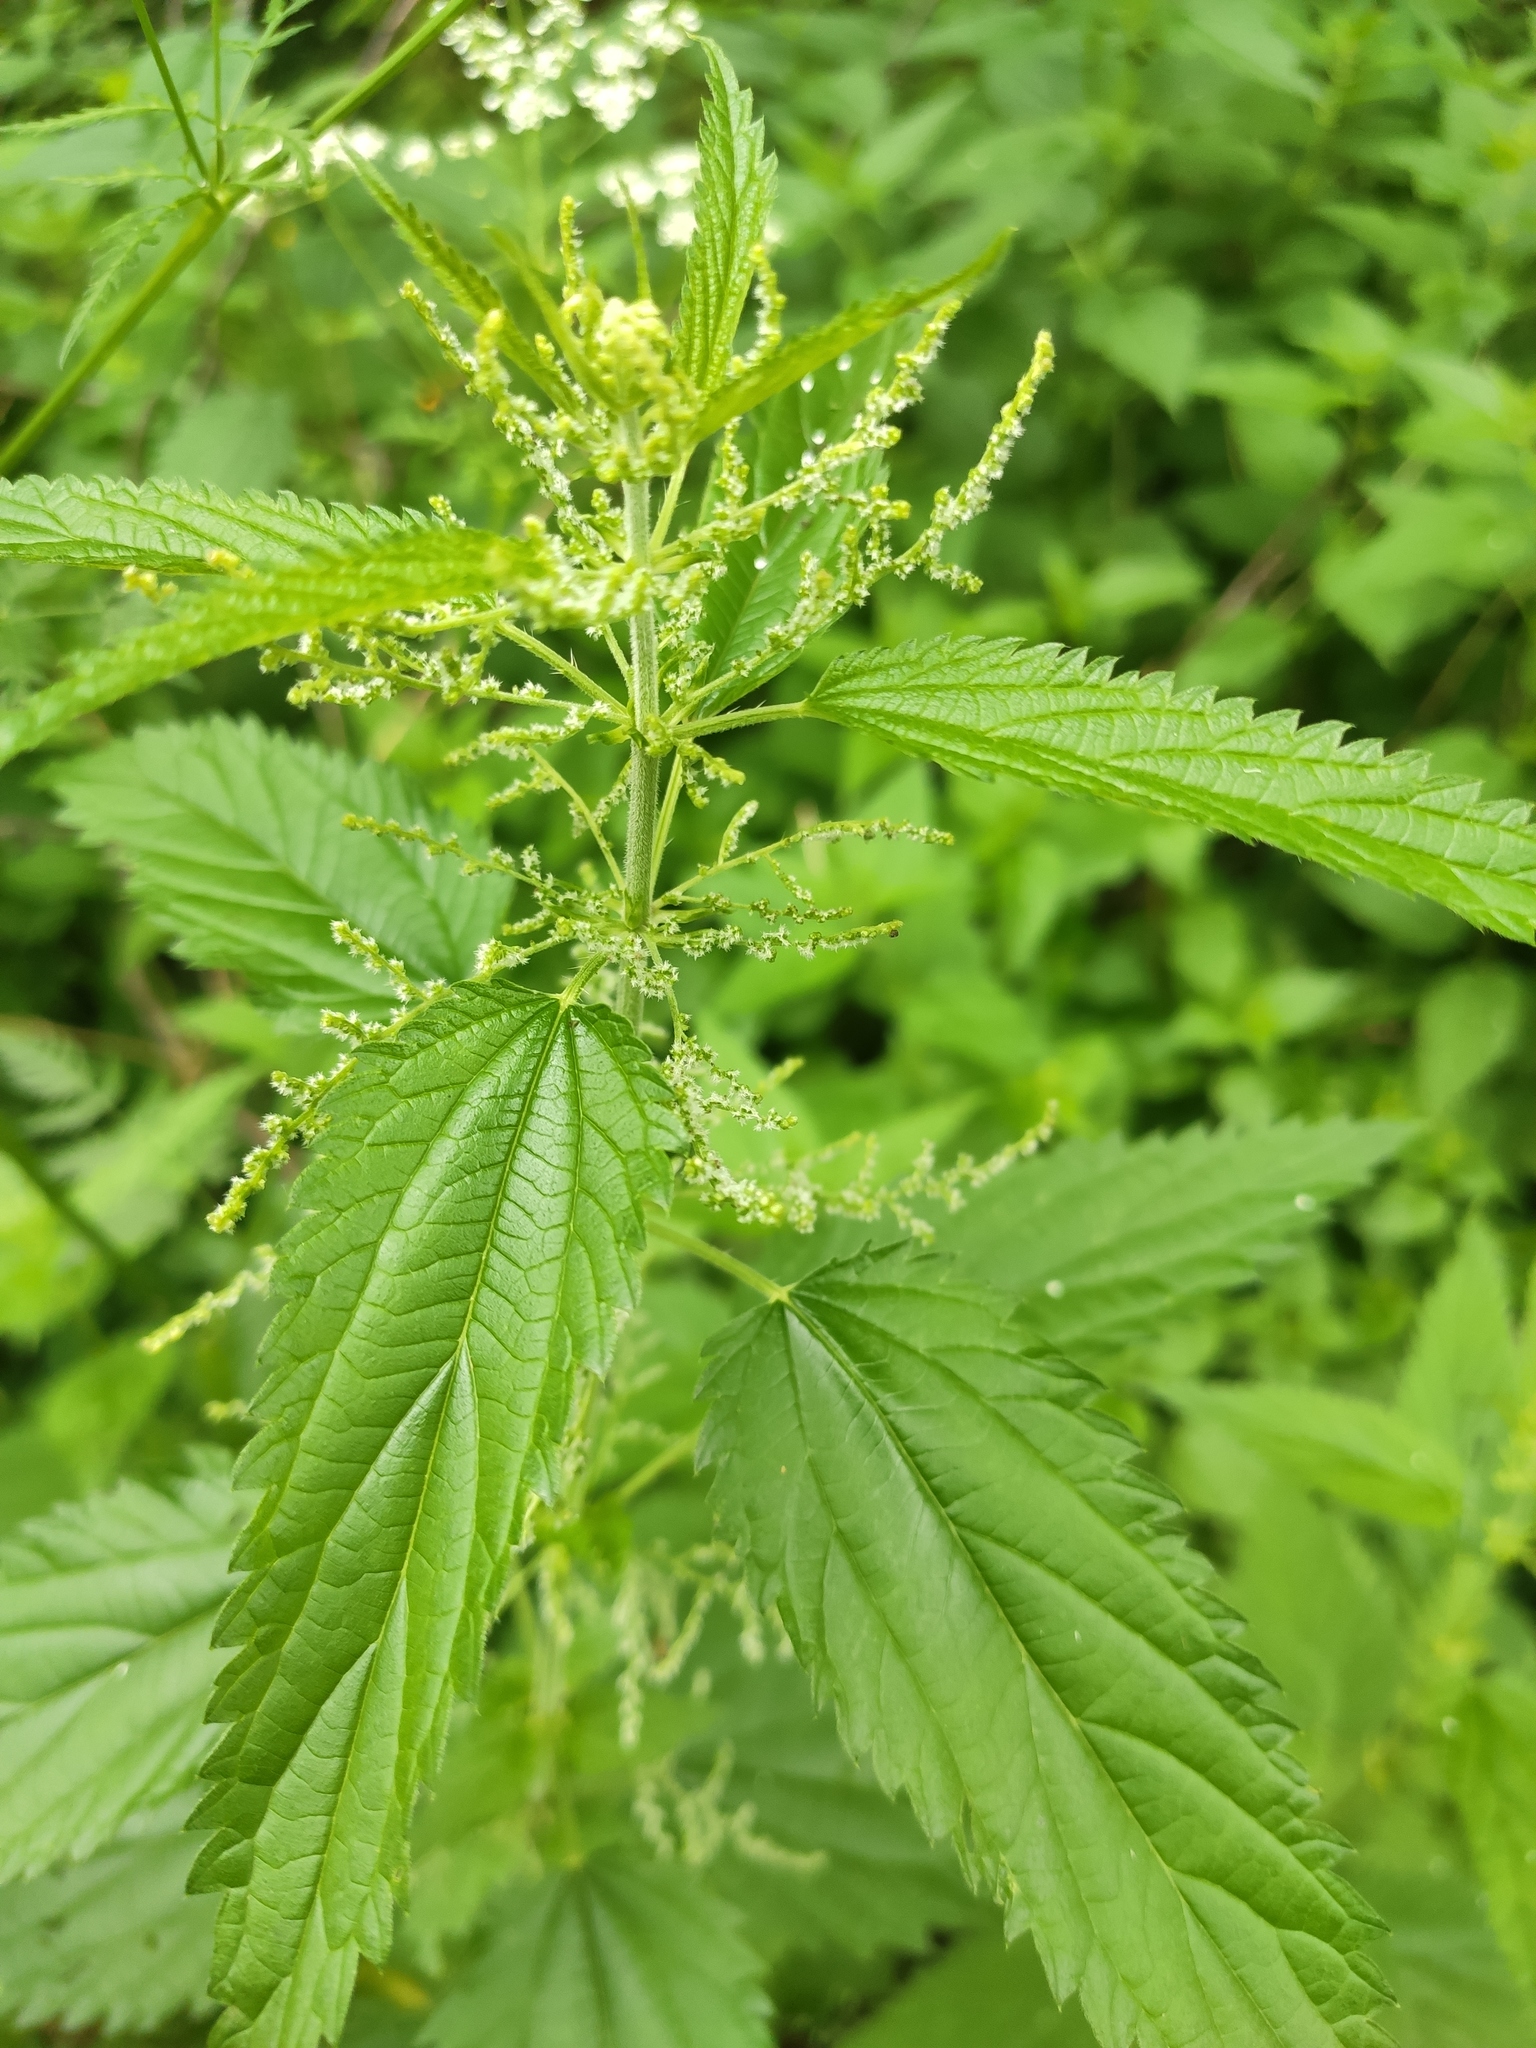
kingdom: Plantae
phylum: Tracheophyta
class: Magnoliopsida
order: Rosales
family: Urticaceae
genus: Urtica
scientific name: Urtica dioica
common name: Common nettle
